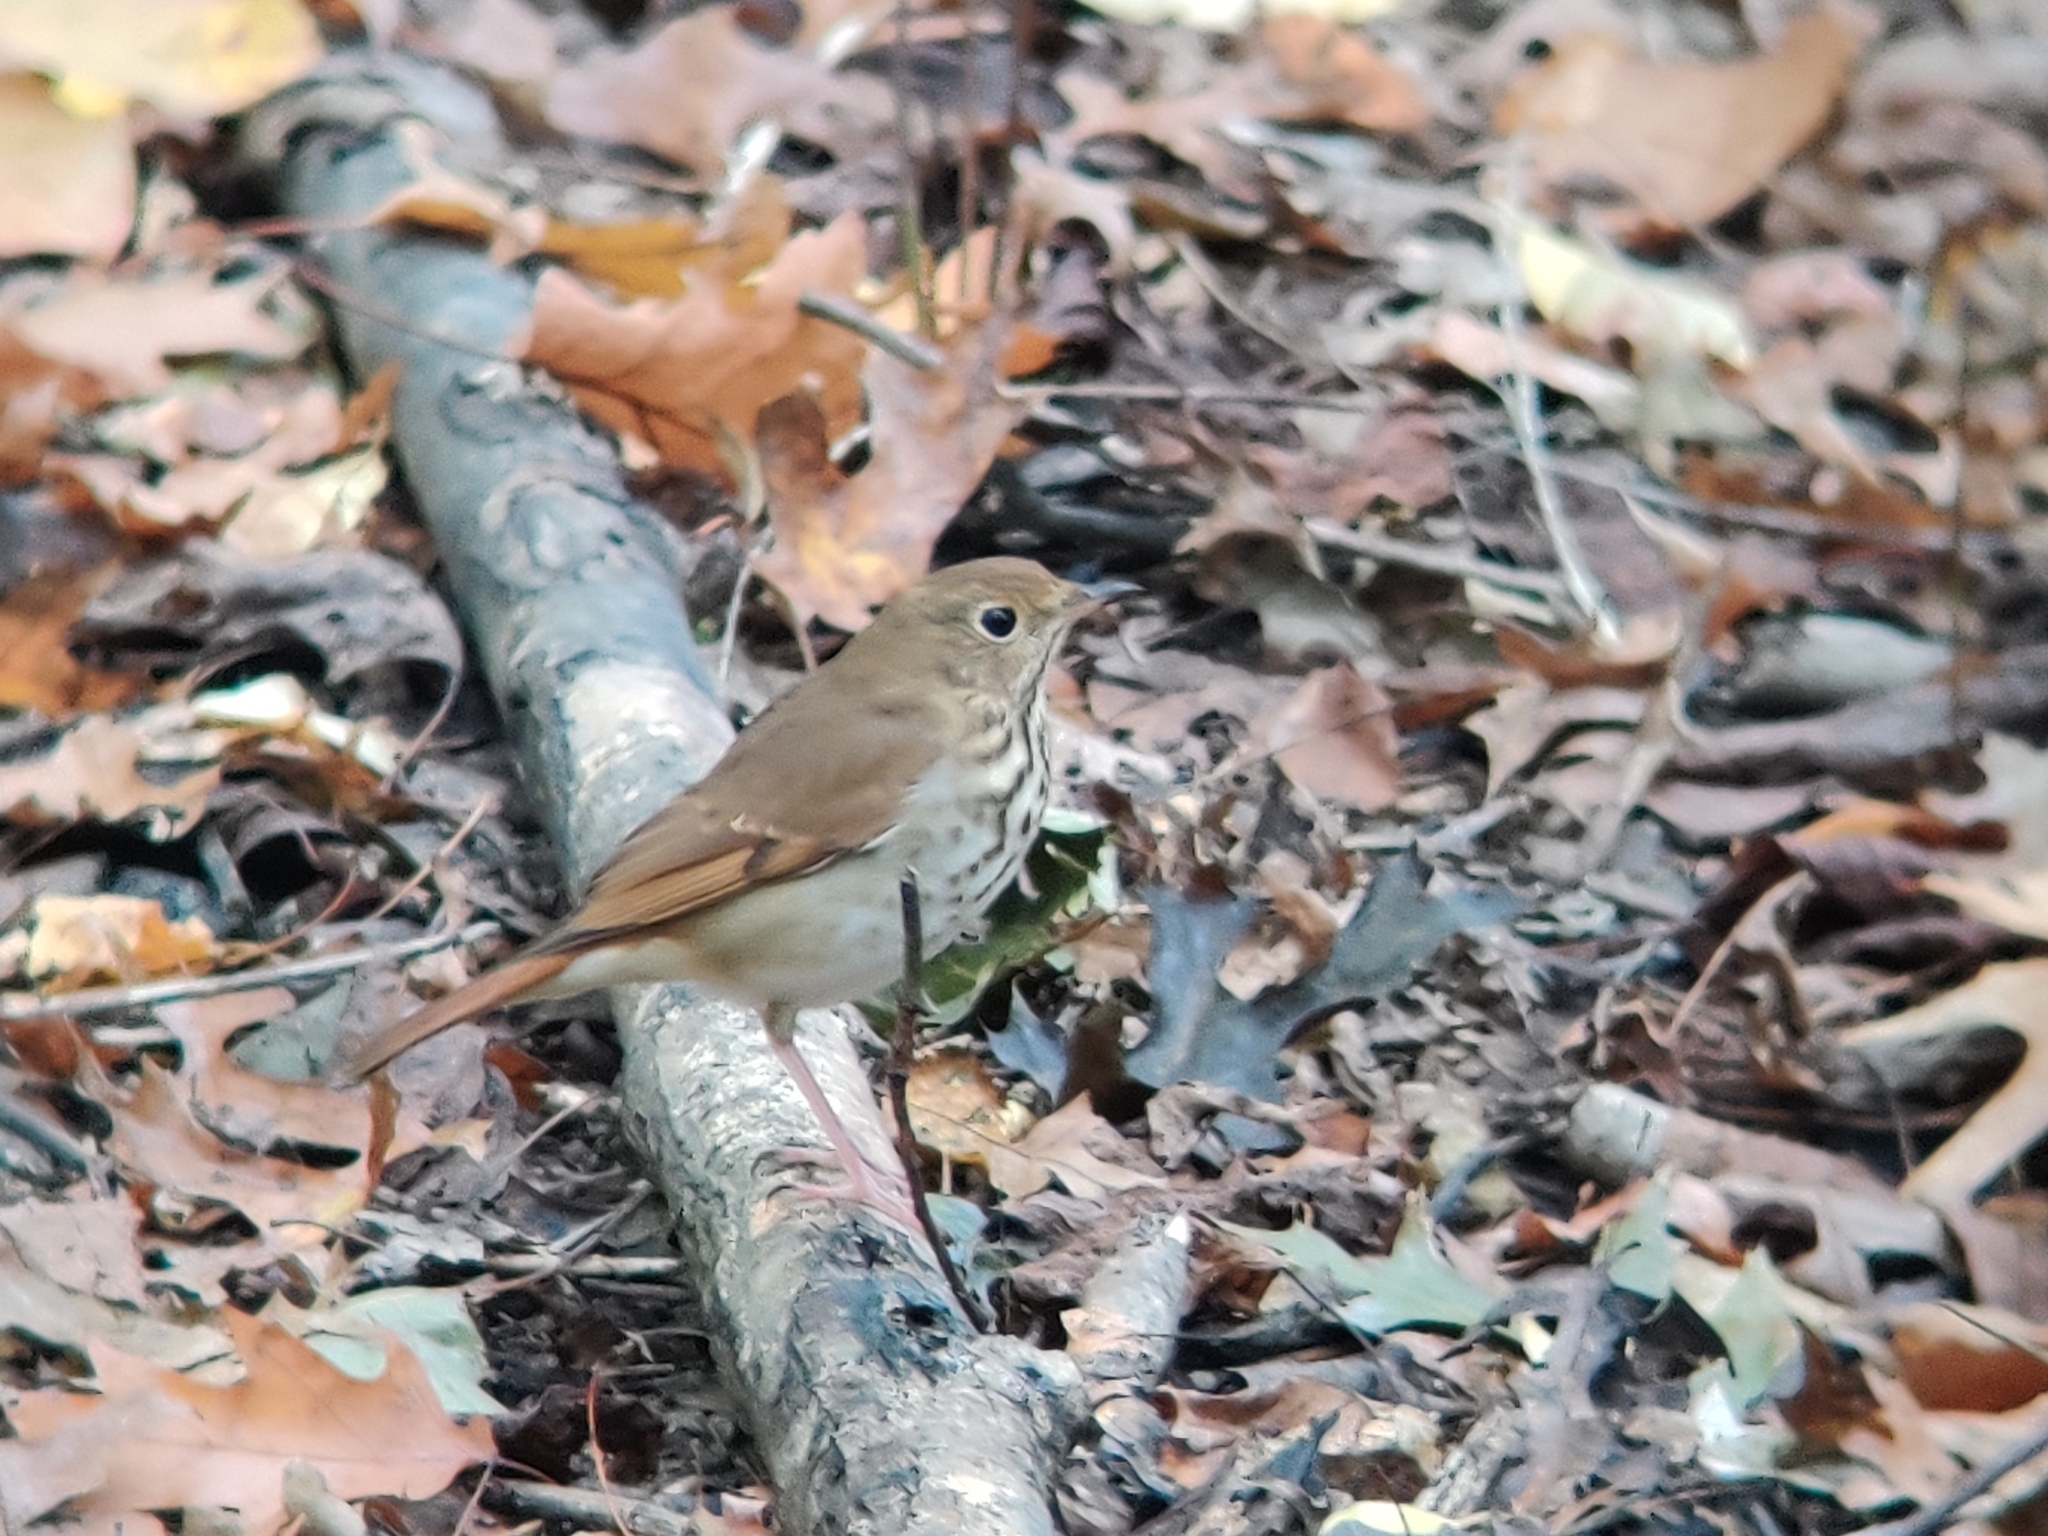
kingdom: Animalia
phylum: Chordata
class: Aves
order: Passeriformes
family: Turdidae
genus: Catharus
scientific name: Catharus guttatus
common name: Hermit thrush
